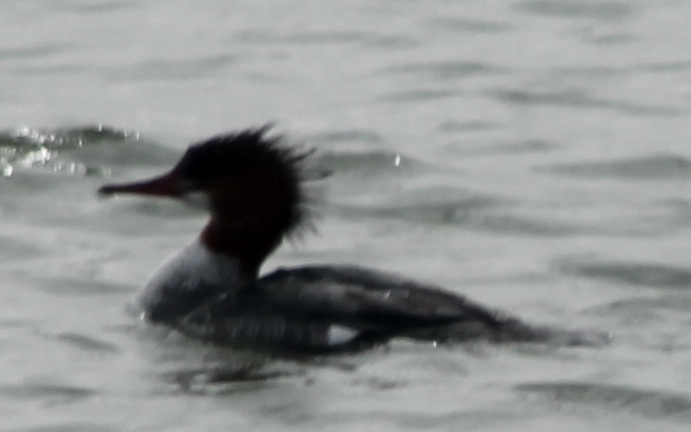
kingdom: Animalia
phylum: Chordata
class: Aves
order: Anseriformes
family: Anatidae
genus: Mergus
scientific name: Mergus merganser
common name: Common merganser
